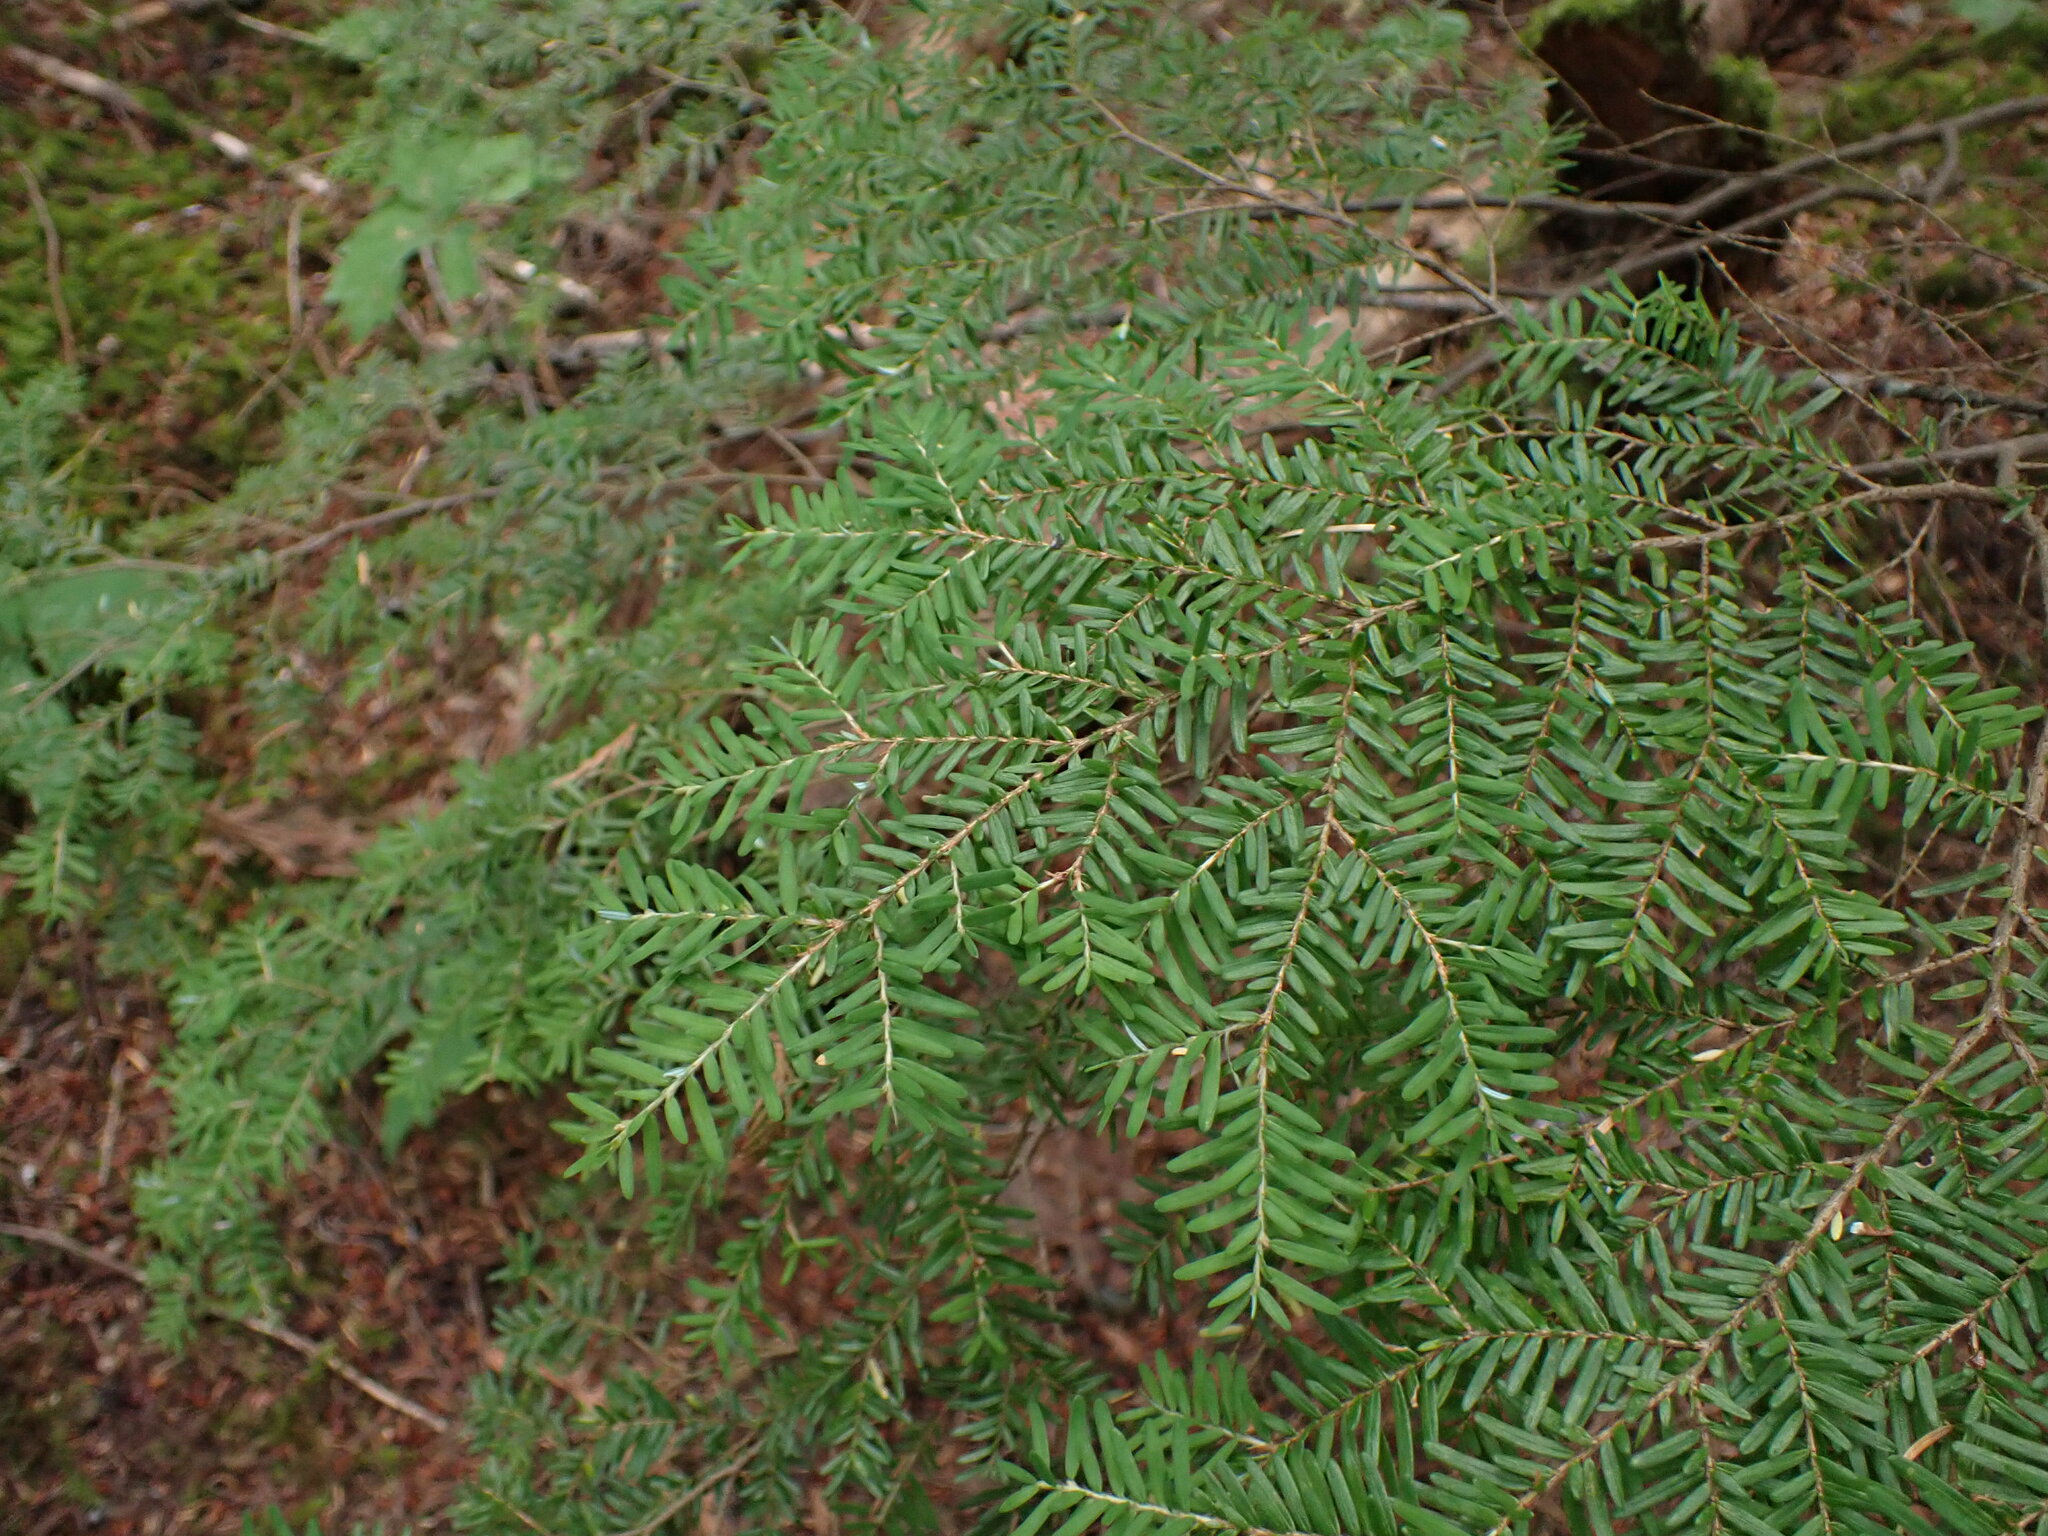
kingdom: Plantae
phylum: Tracheophyta
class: Pinopsida
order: Pinales
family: Pinaceae
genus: Tsuga
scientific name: Tsuga heterophylla
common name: Western hemlock
